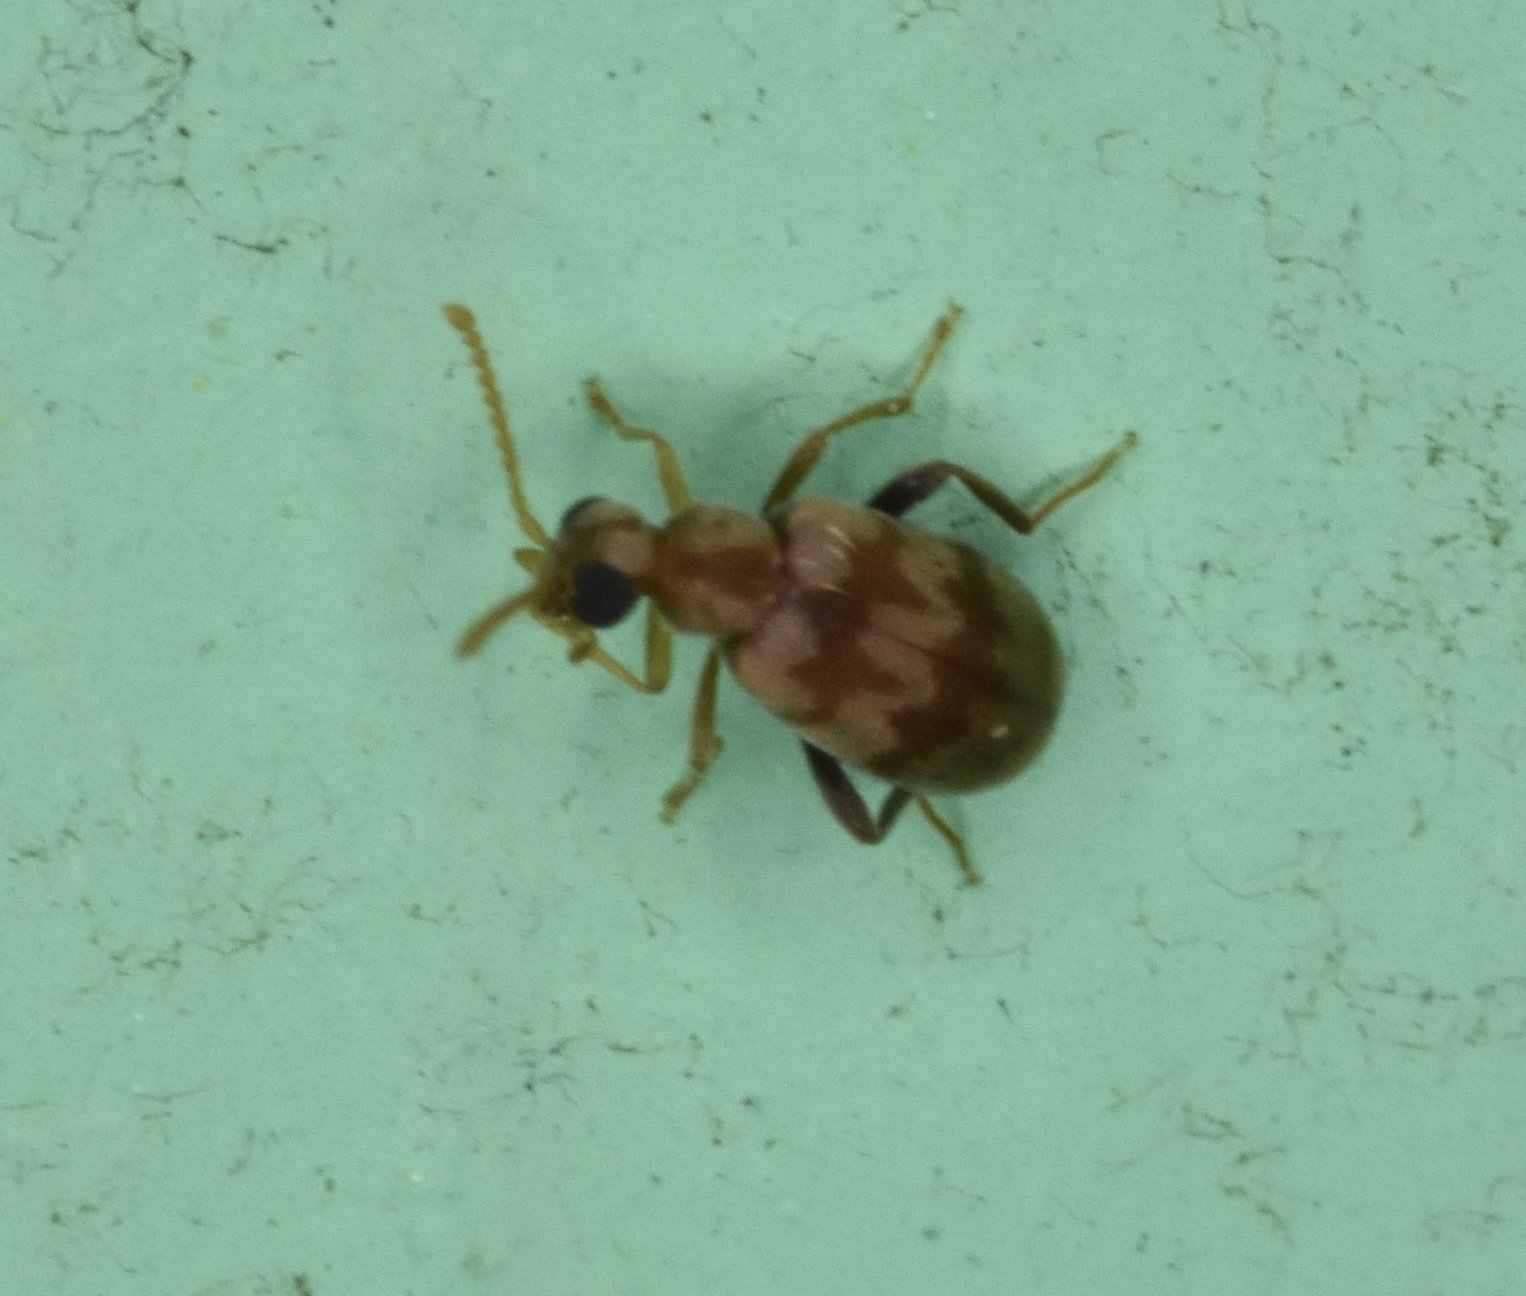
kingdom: Animalia
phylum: Arthropoda
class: Insecta
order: Coleoptera
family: Aderidae
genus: Emelinus
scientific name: Emelinus melsheimeri
